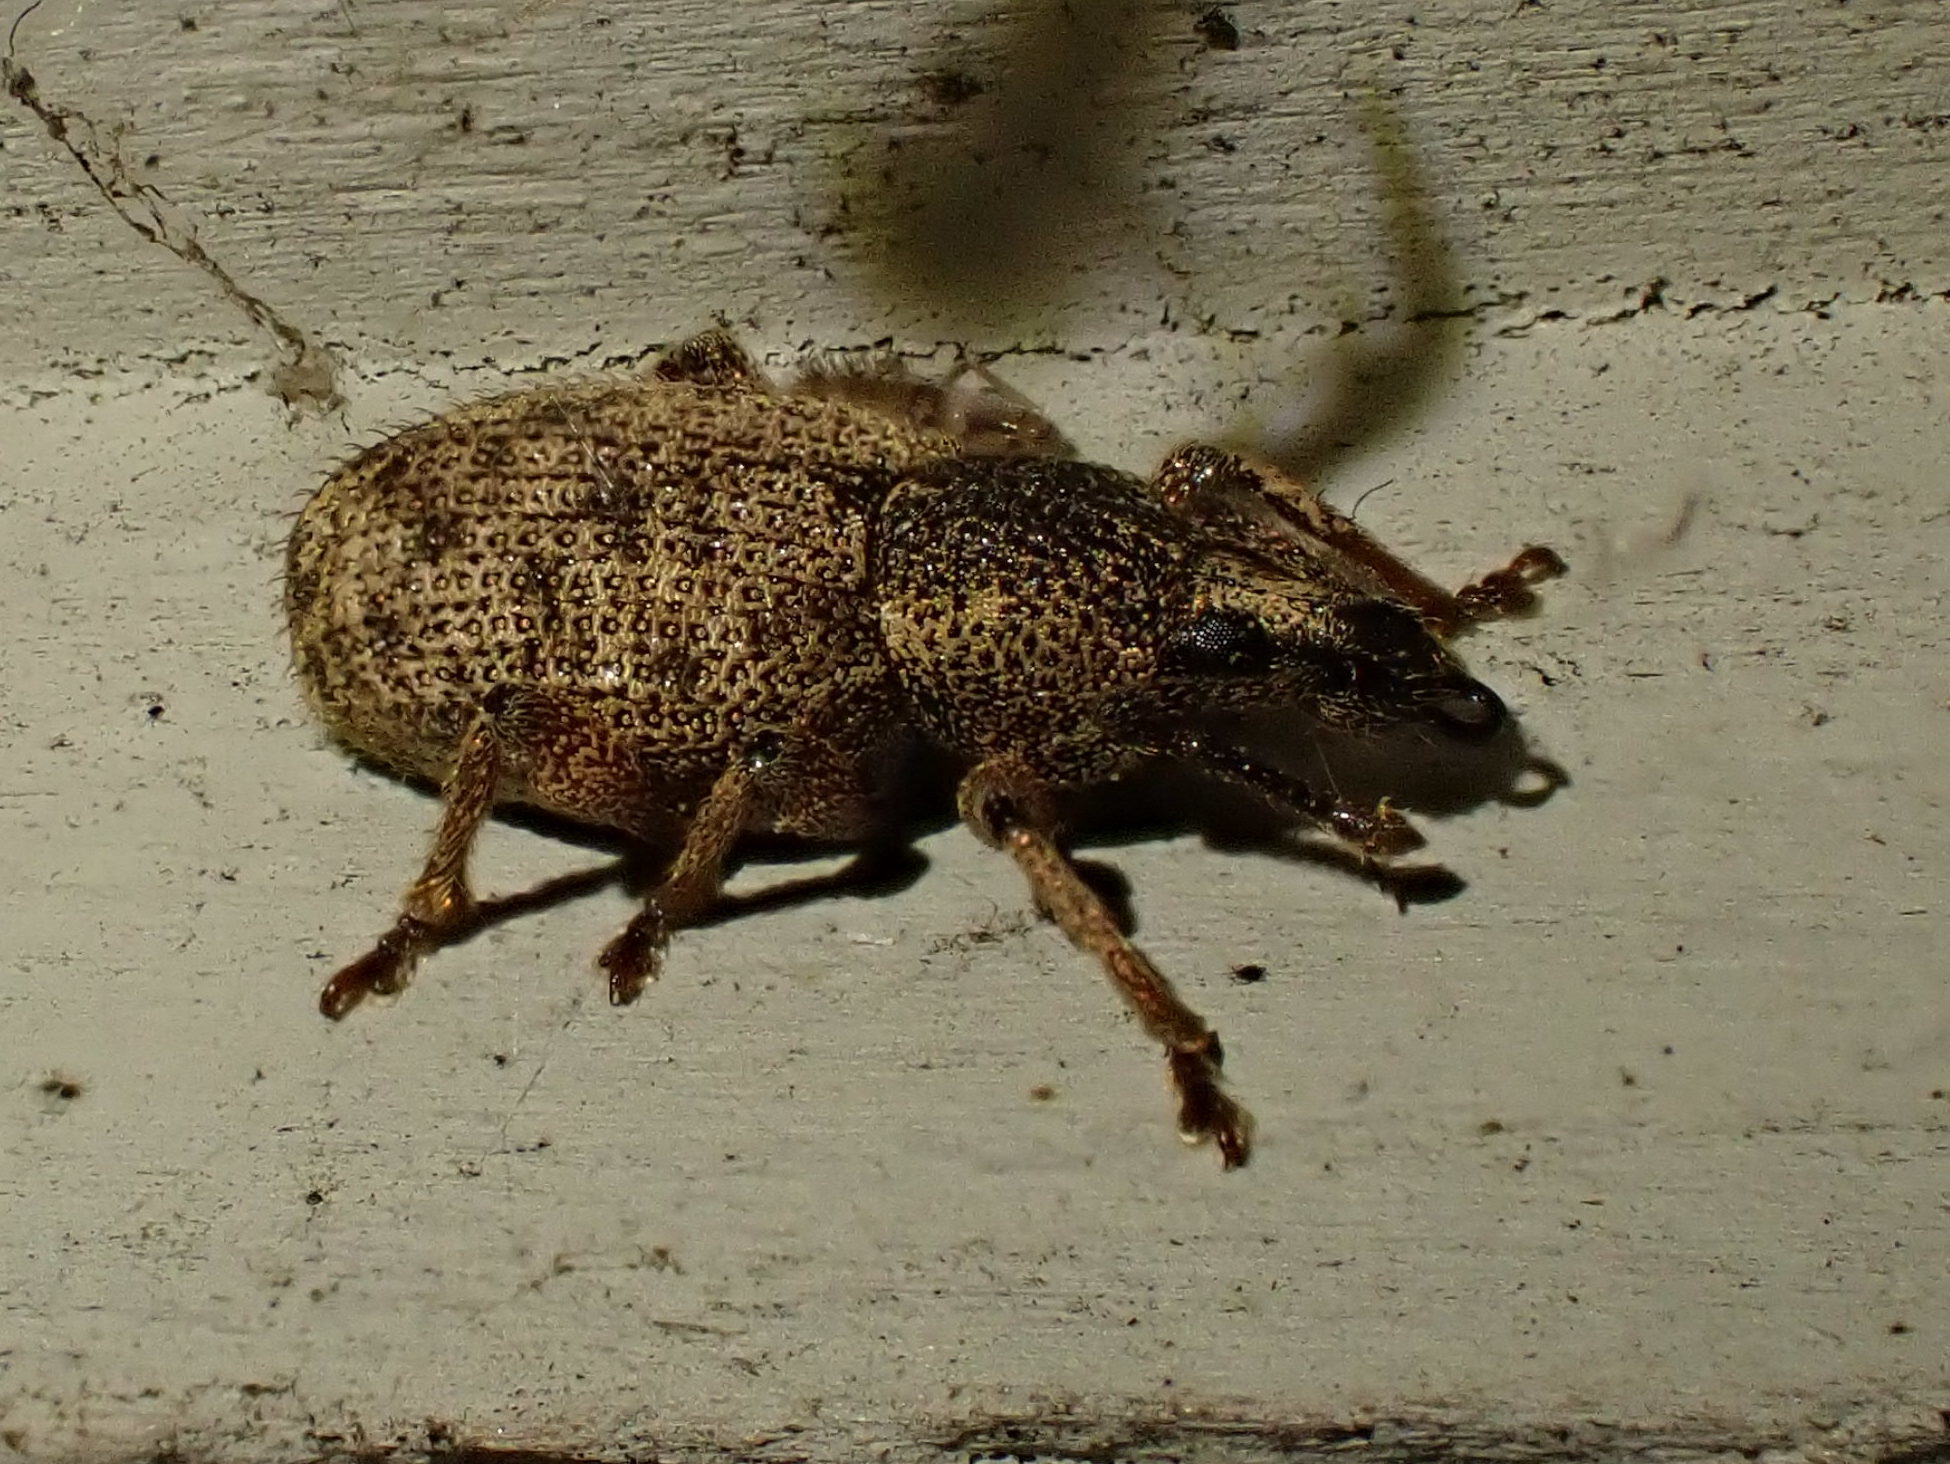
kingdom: Animalia
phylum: Arthropoda
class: Insecta
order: Coleoptera
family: Curculionidae
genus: Otiorhynchus
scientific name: Otiorhynchus singularis
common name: Clay-coloured weevil
